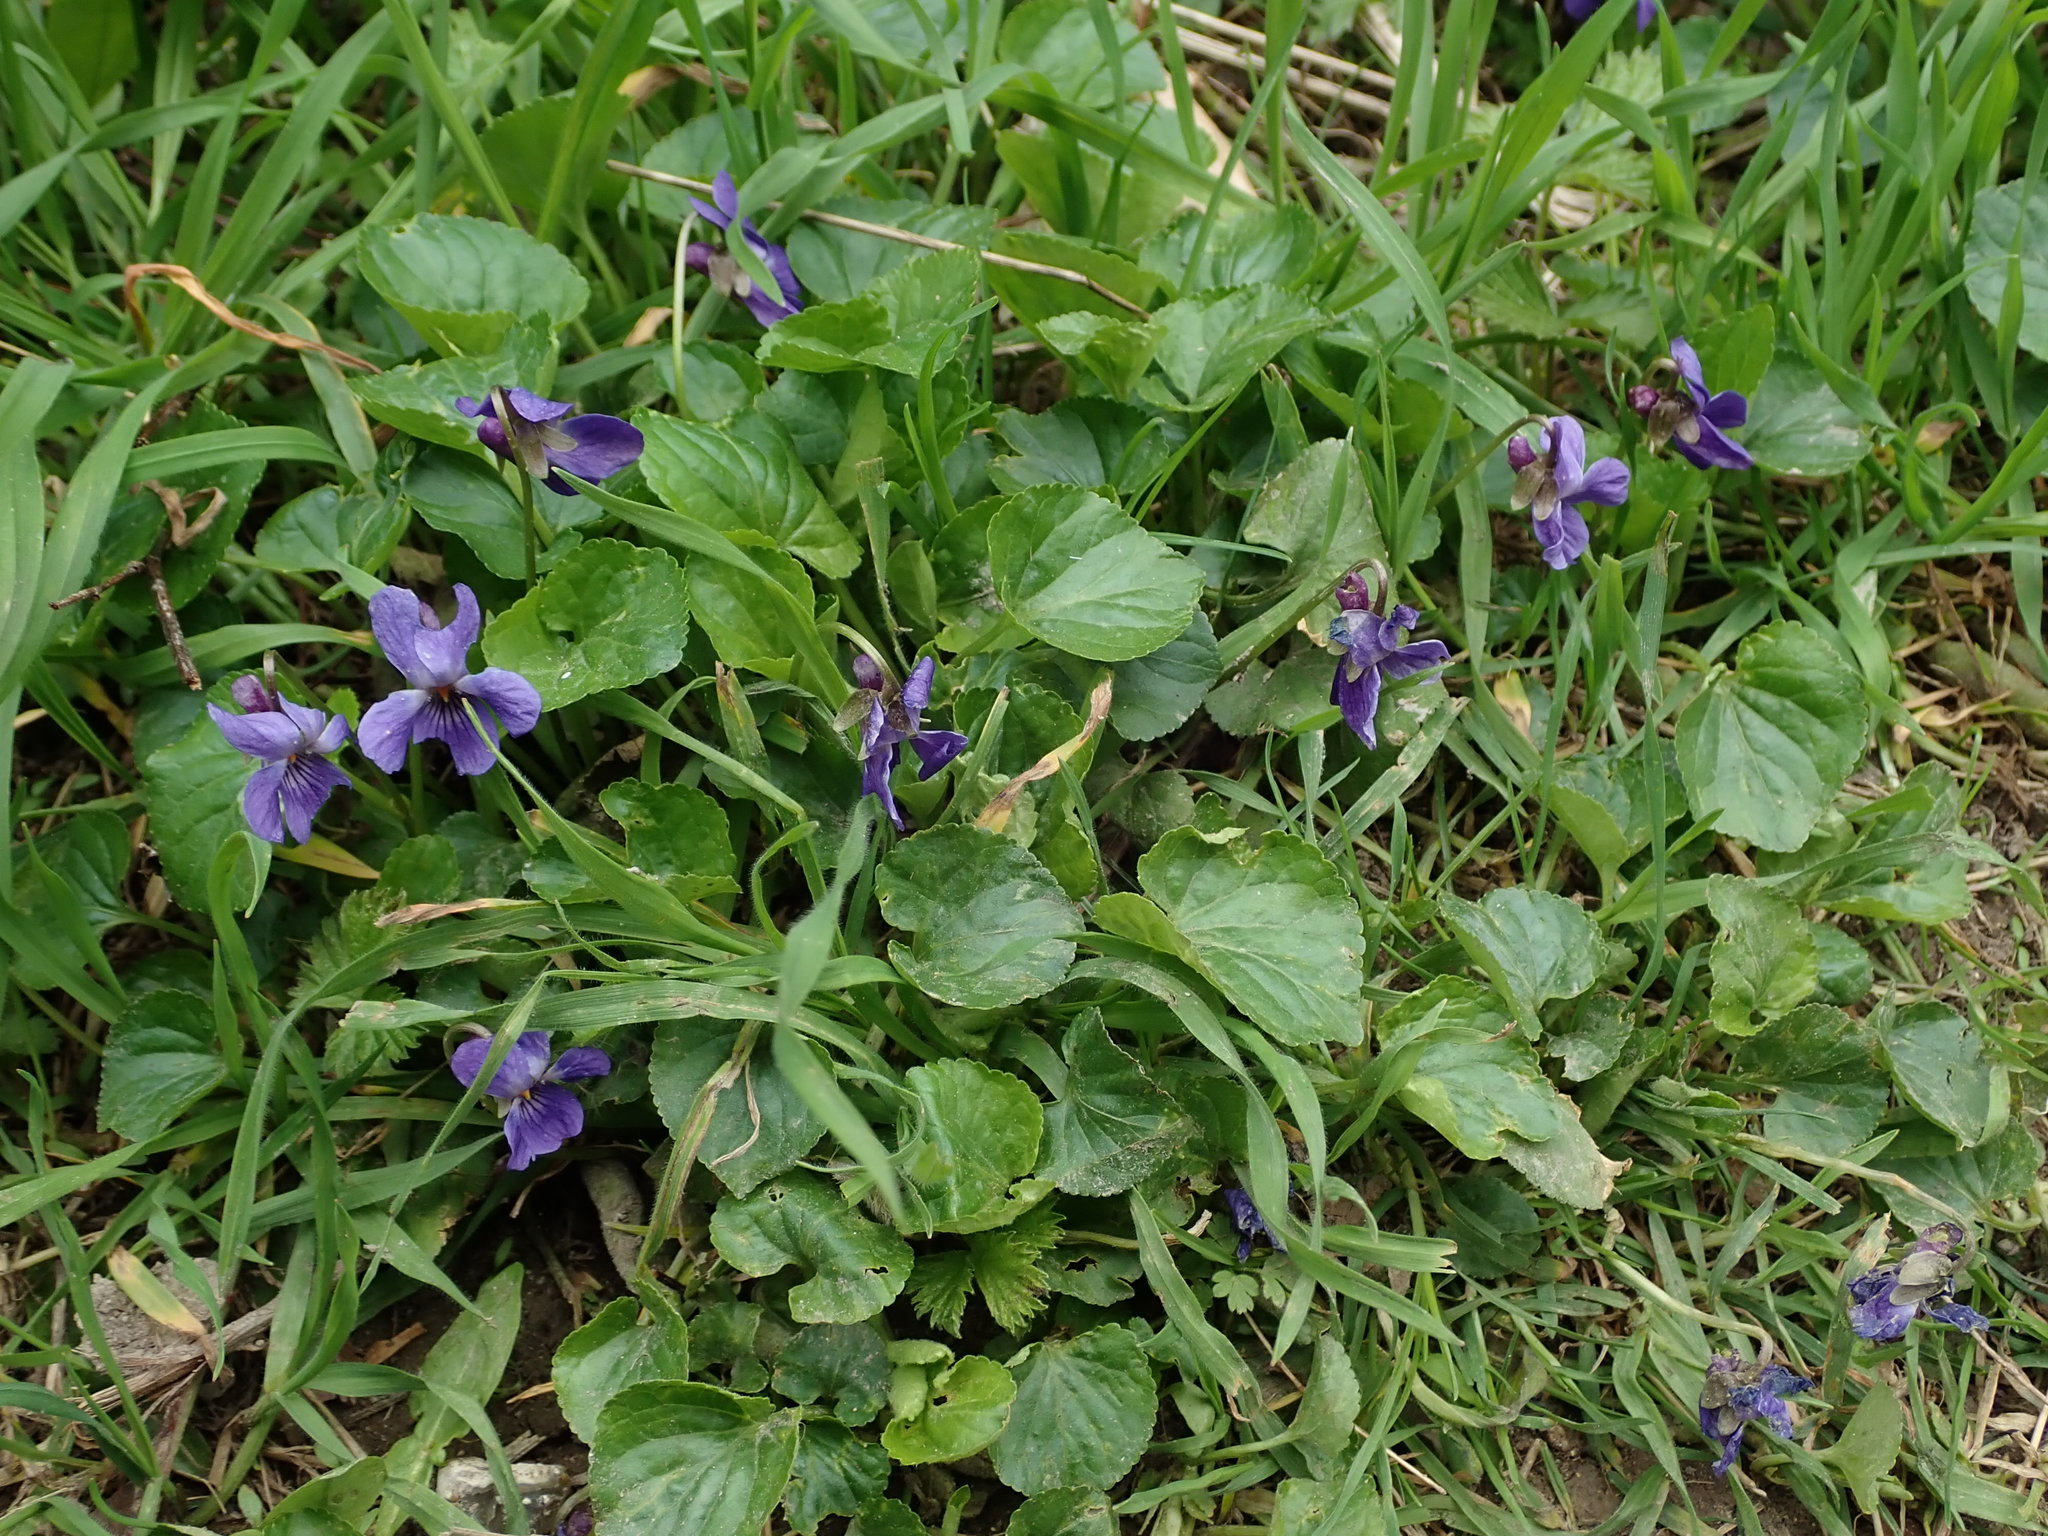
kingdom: Plantae
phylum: Tracheophyta
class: Magnoliopsida
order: Malpighiales
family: Violaceae
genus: Viola
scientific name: Viola odorata
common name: Sweet violet
